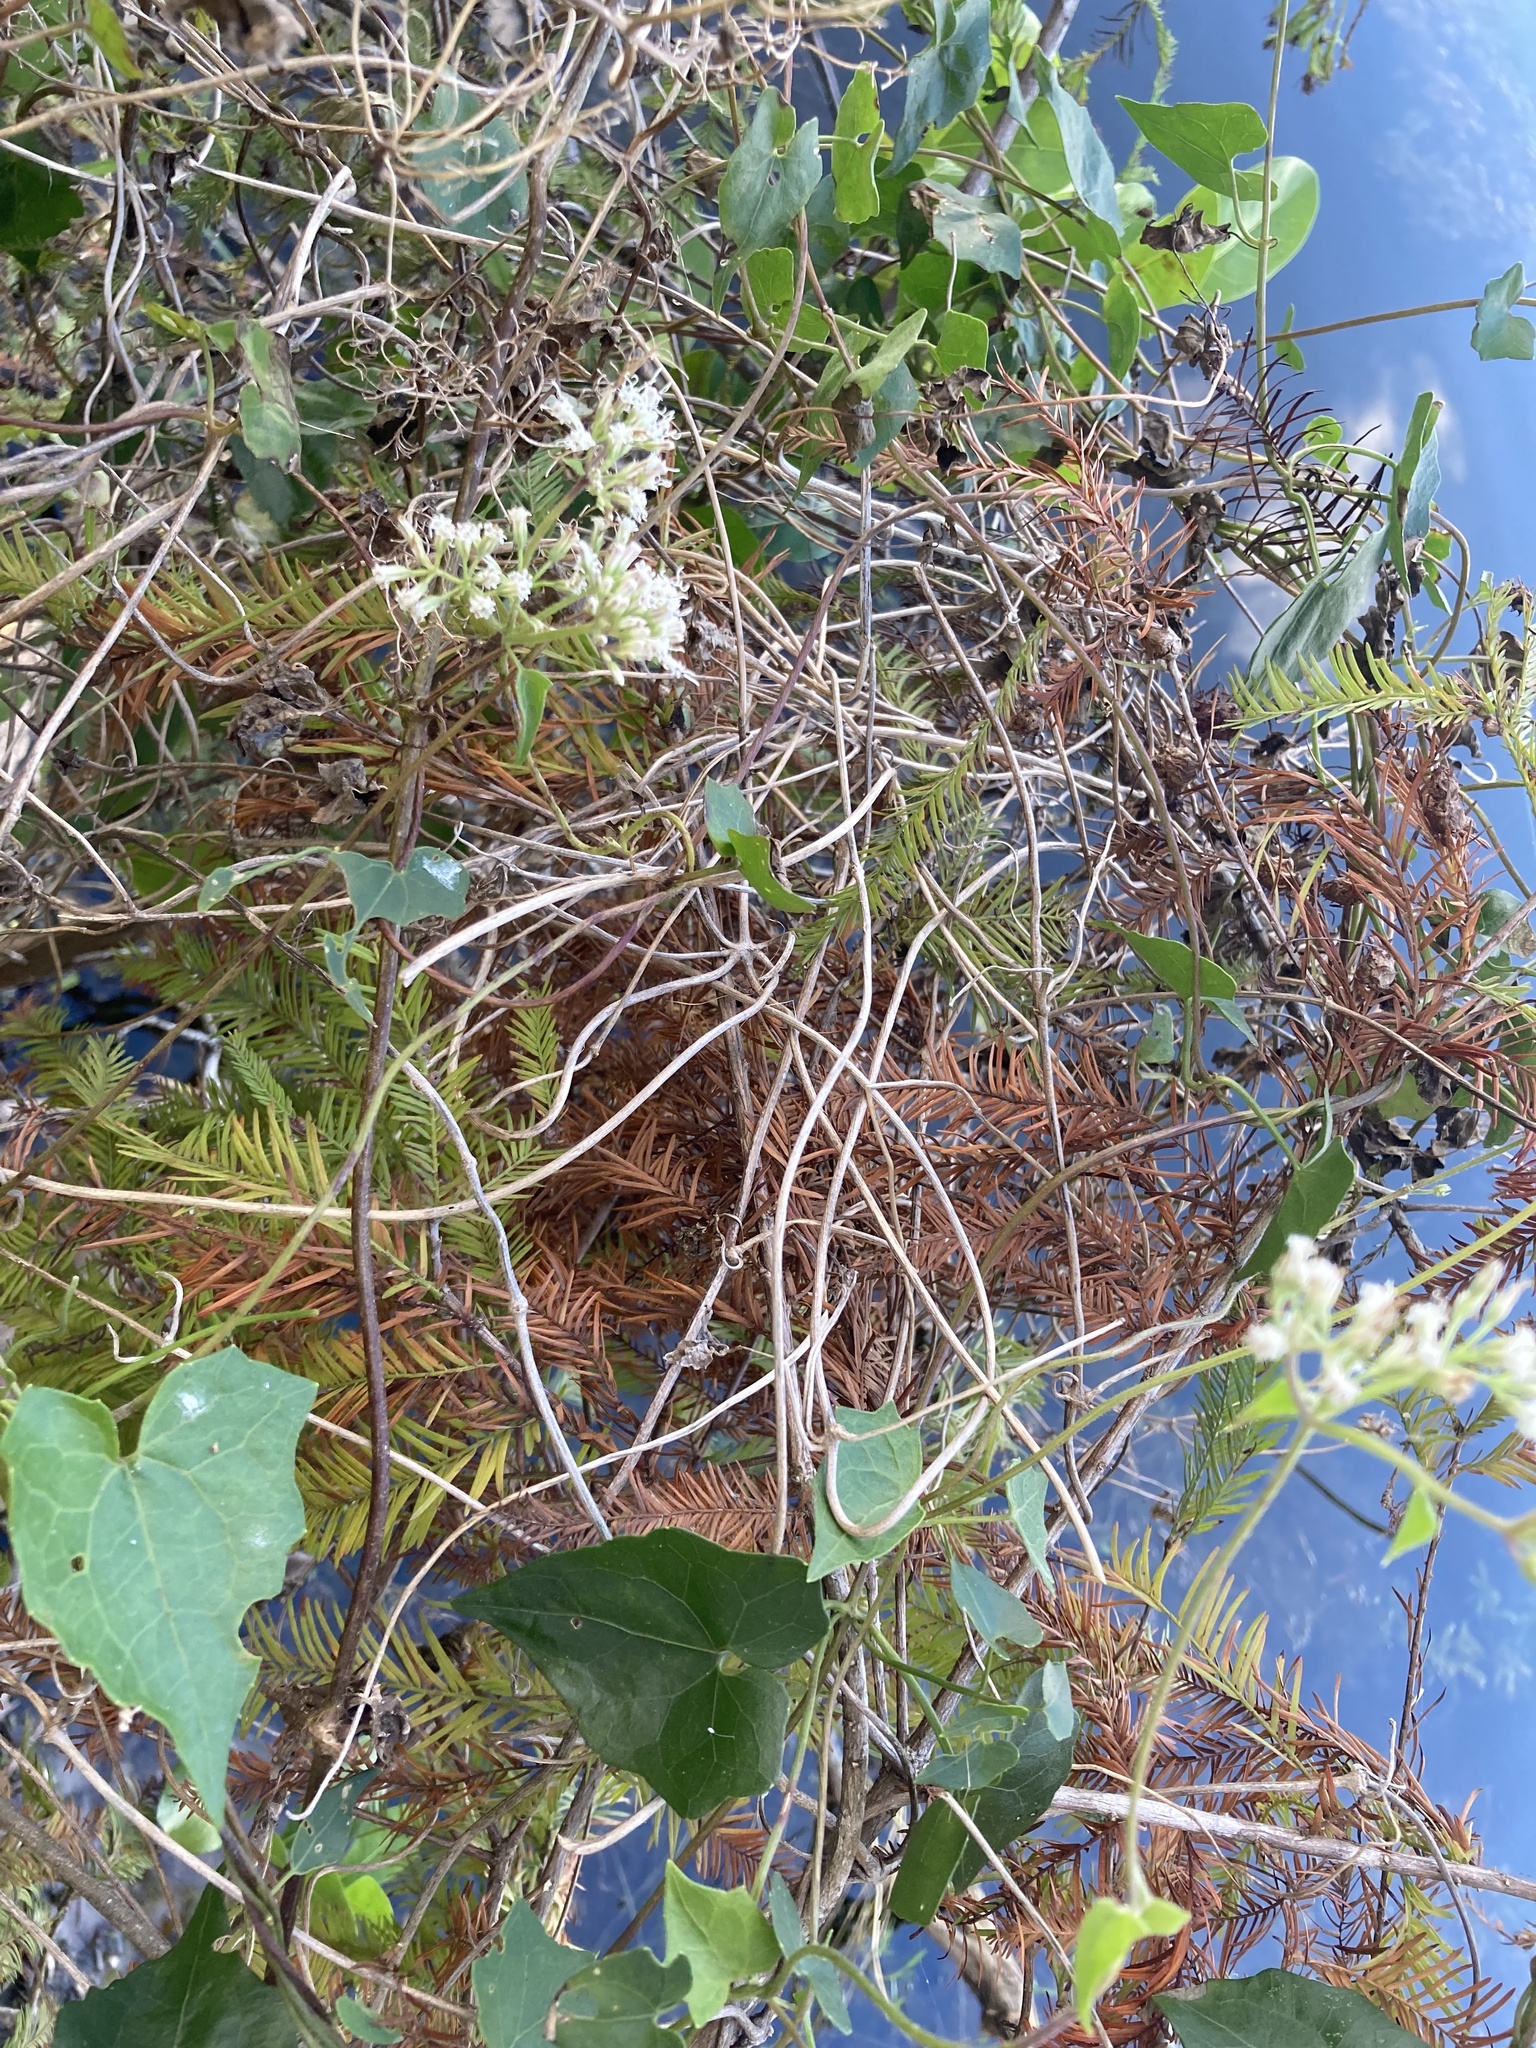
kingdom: Plantae
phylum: Tracheophyta
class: Magnoliopsida
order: Asterales
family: Asteraceae
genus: Mikania
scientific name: Mikania scandens
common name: Climbing hempvine
